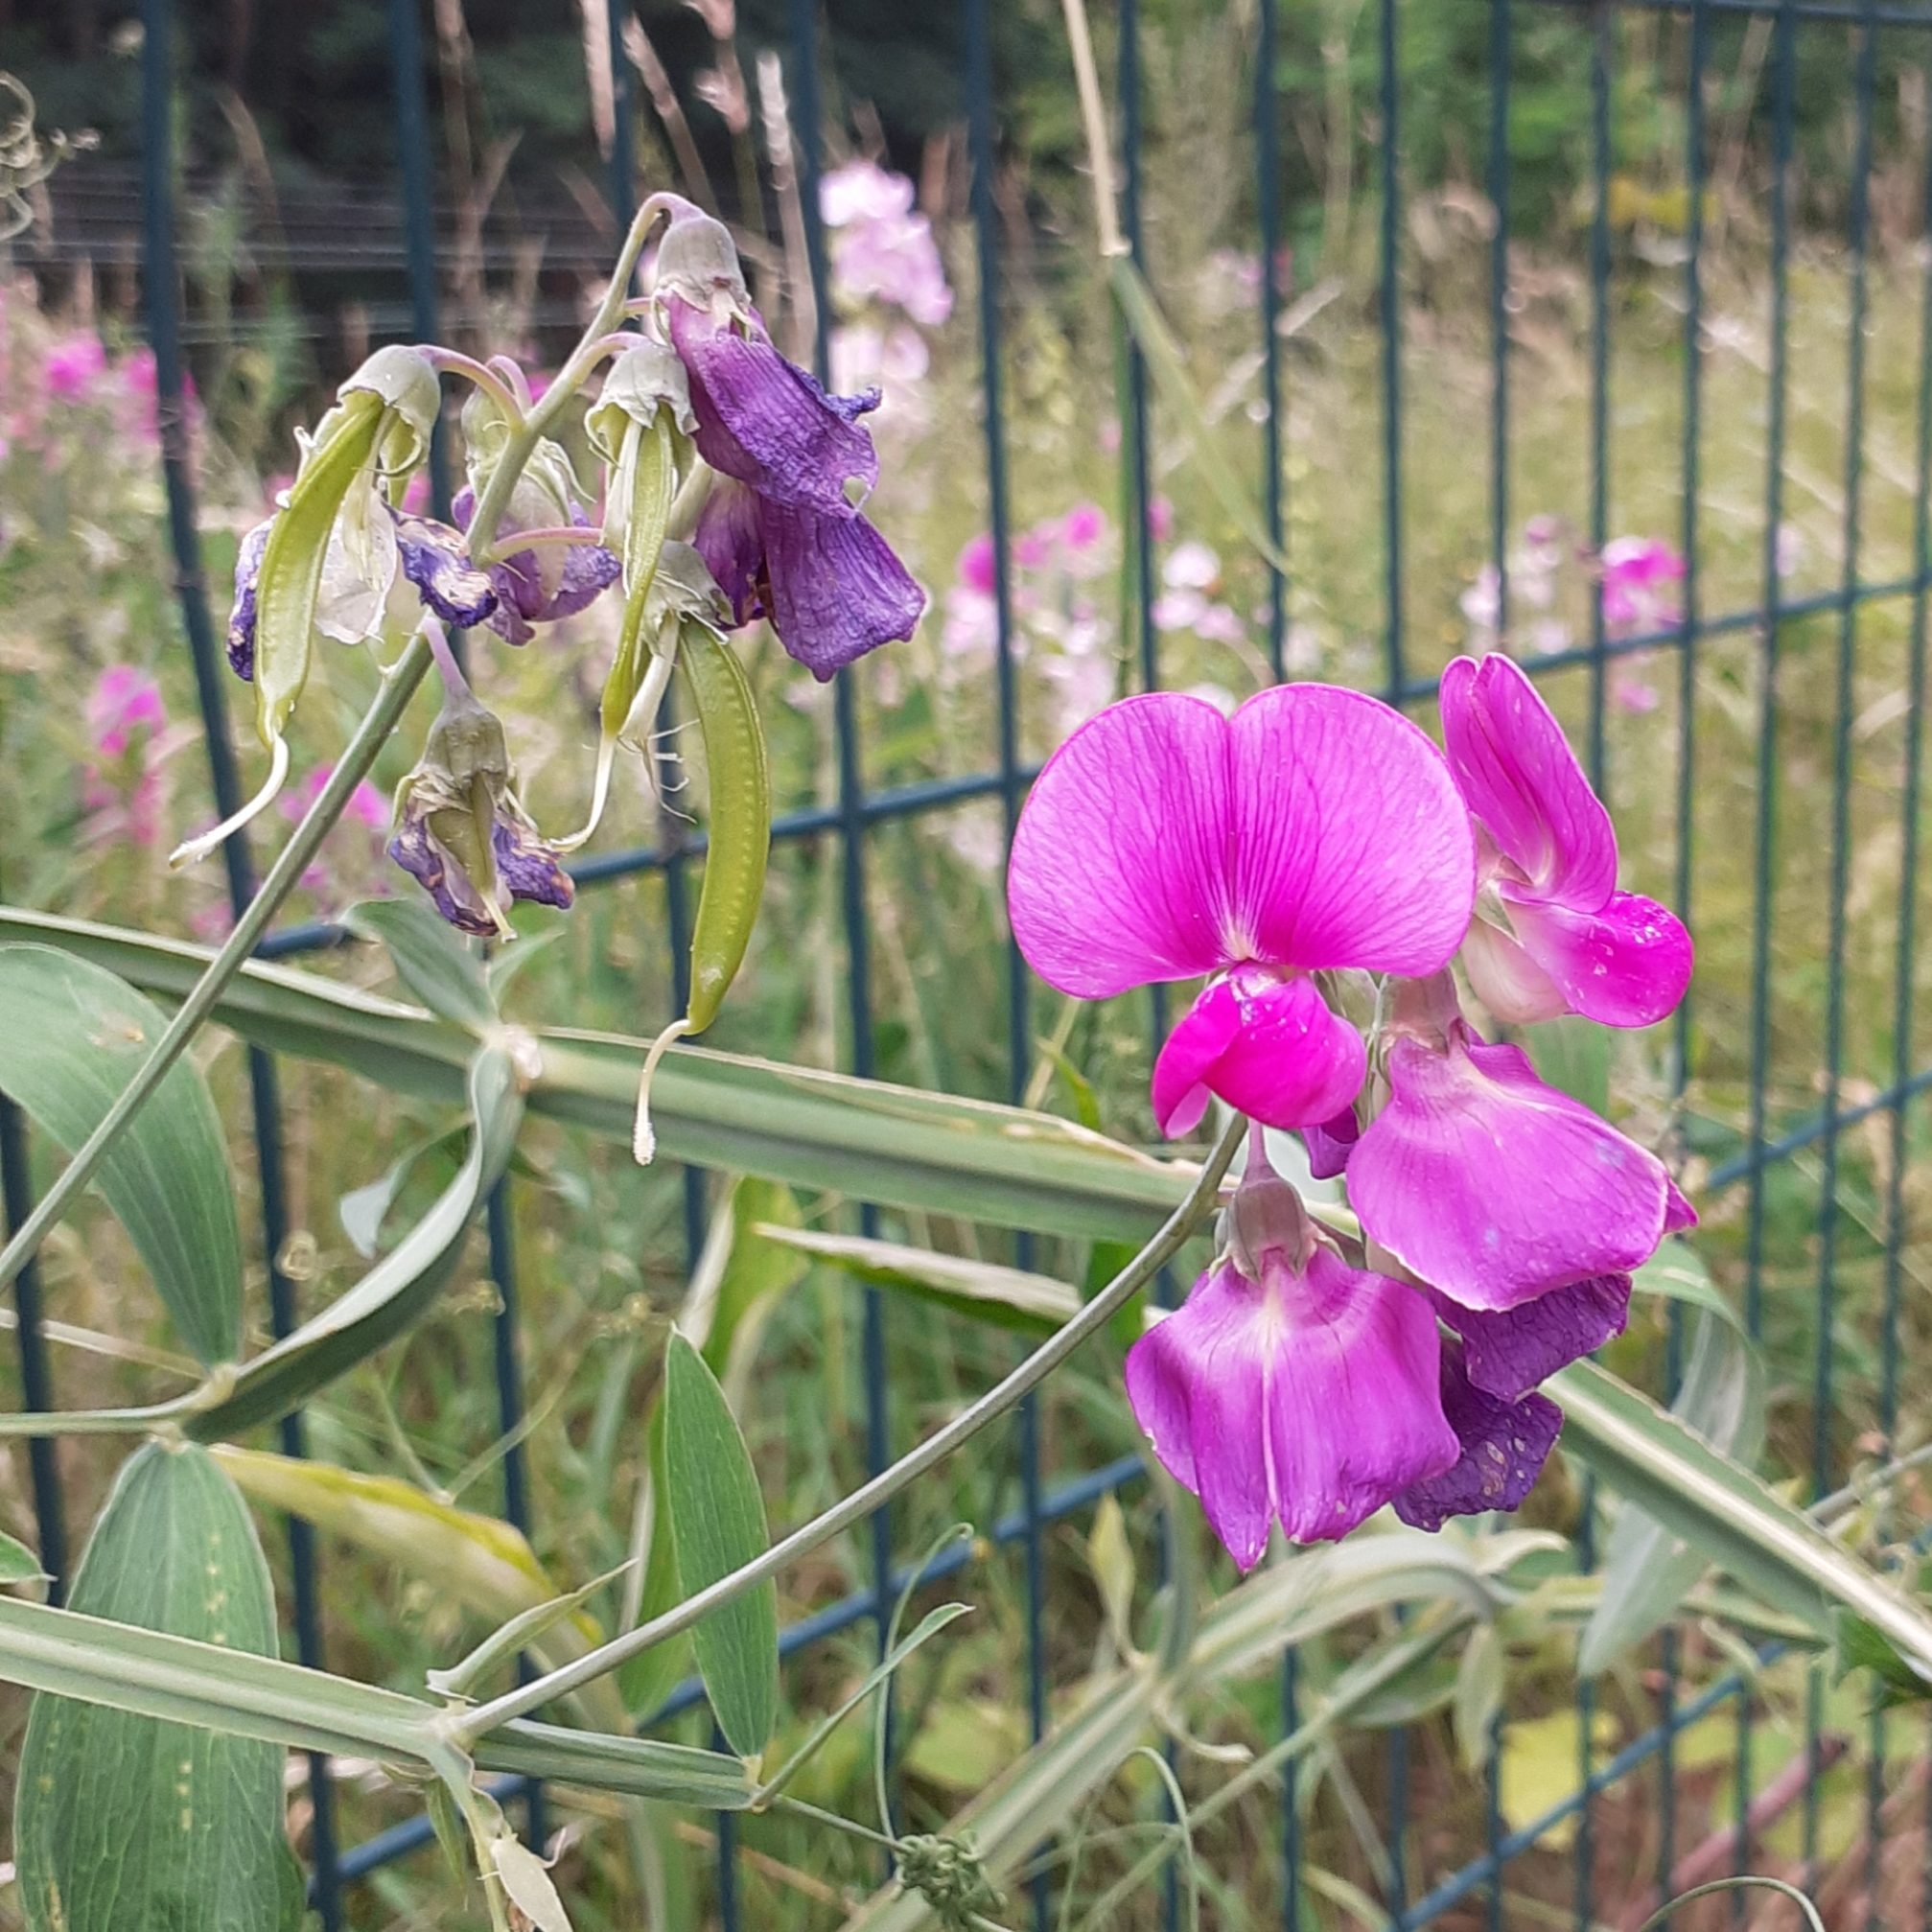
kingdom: Plantae
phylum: Tracheophyta
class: Magnoliopsida
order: Fabales
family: Fabaceae
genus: Lathyrus
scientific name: Lathyrus latifolius
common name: Perennial pea
